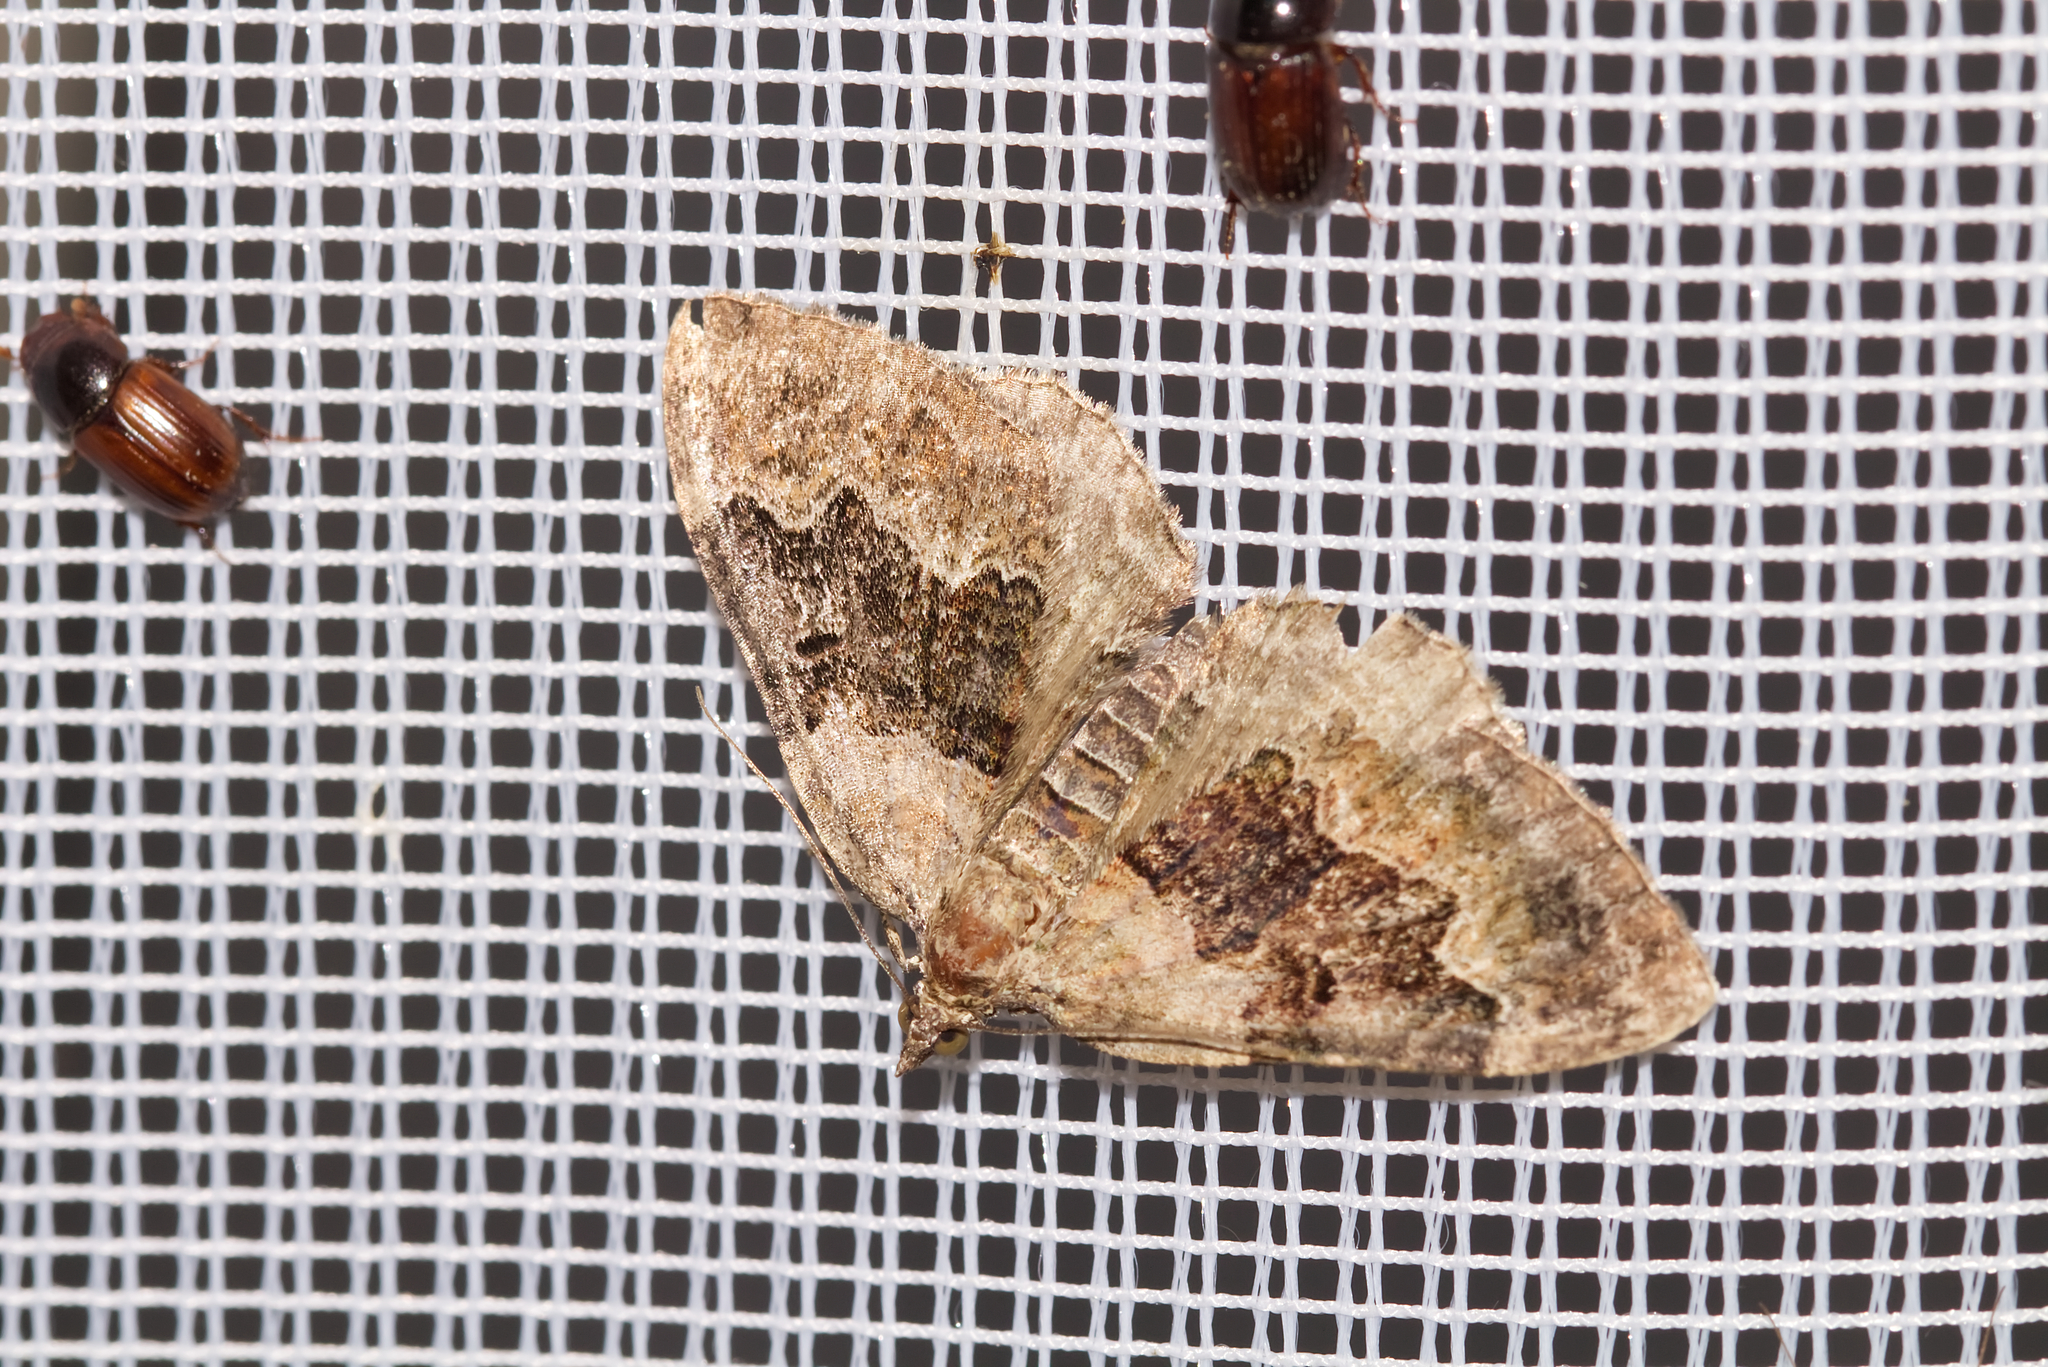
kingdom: Animalia
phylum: Arthropoda
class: Insecta
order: Lepidoptera
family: Geometridae
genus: Xanthorhoe
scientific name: Xanthorhoe quadrifasiata
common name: Large twin-spot carpet
